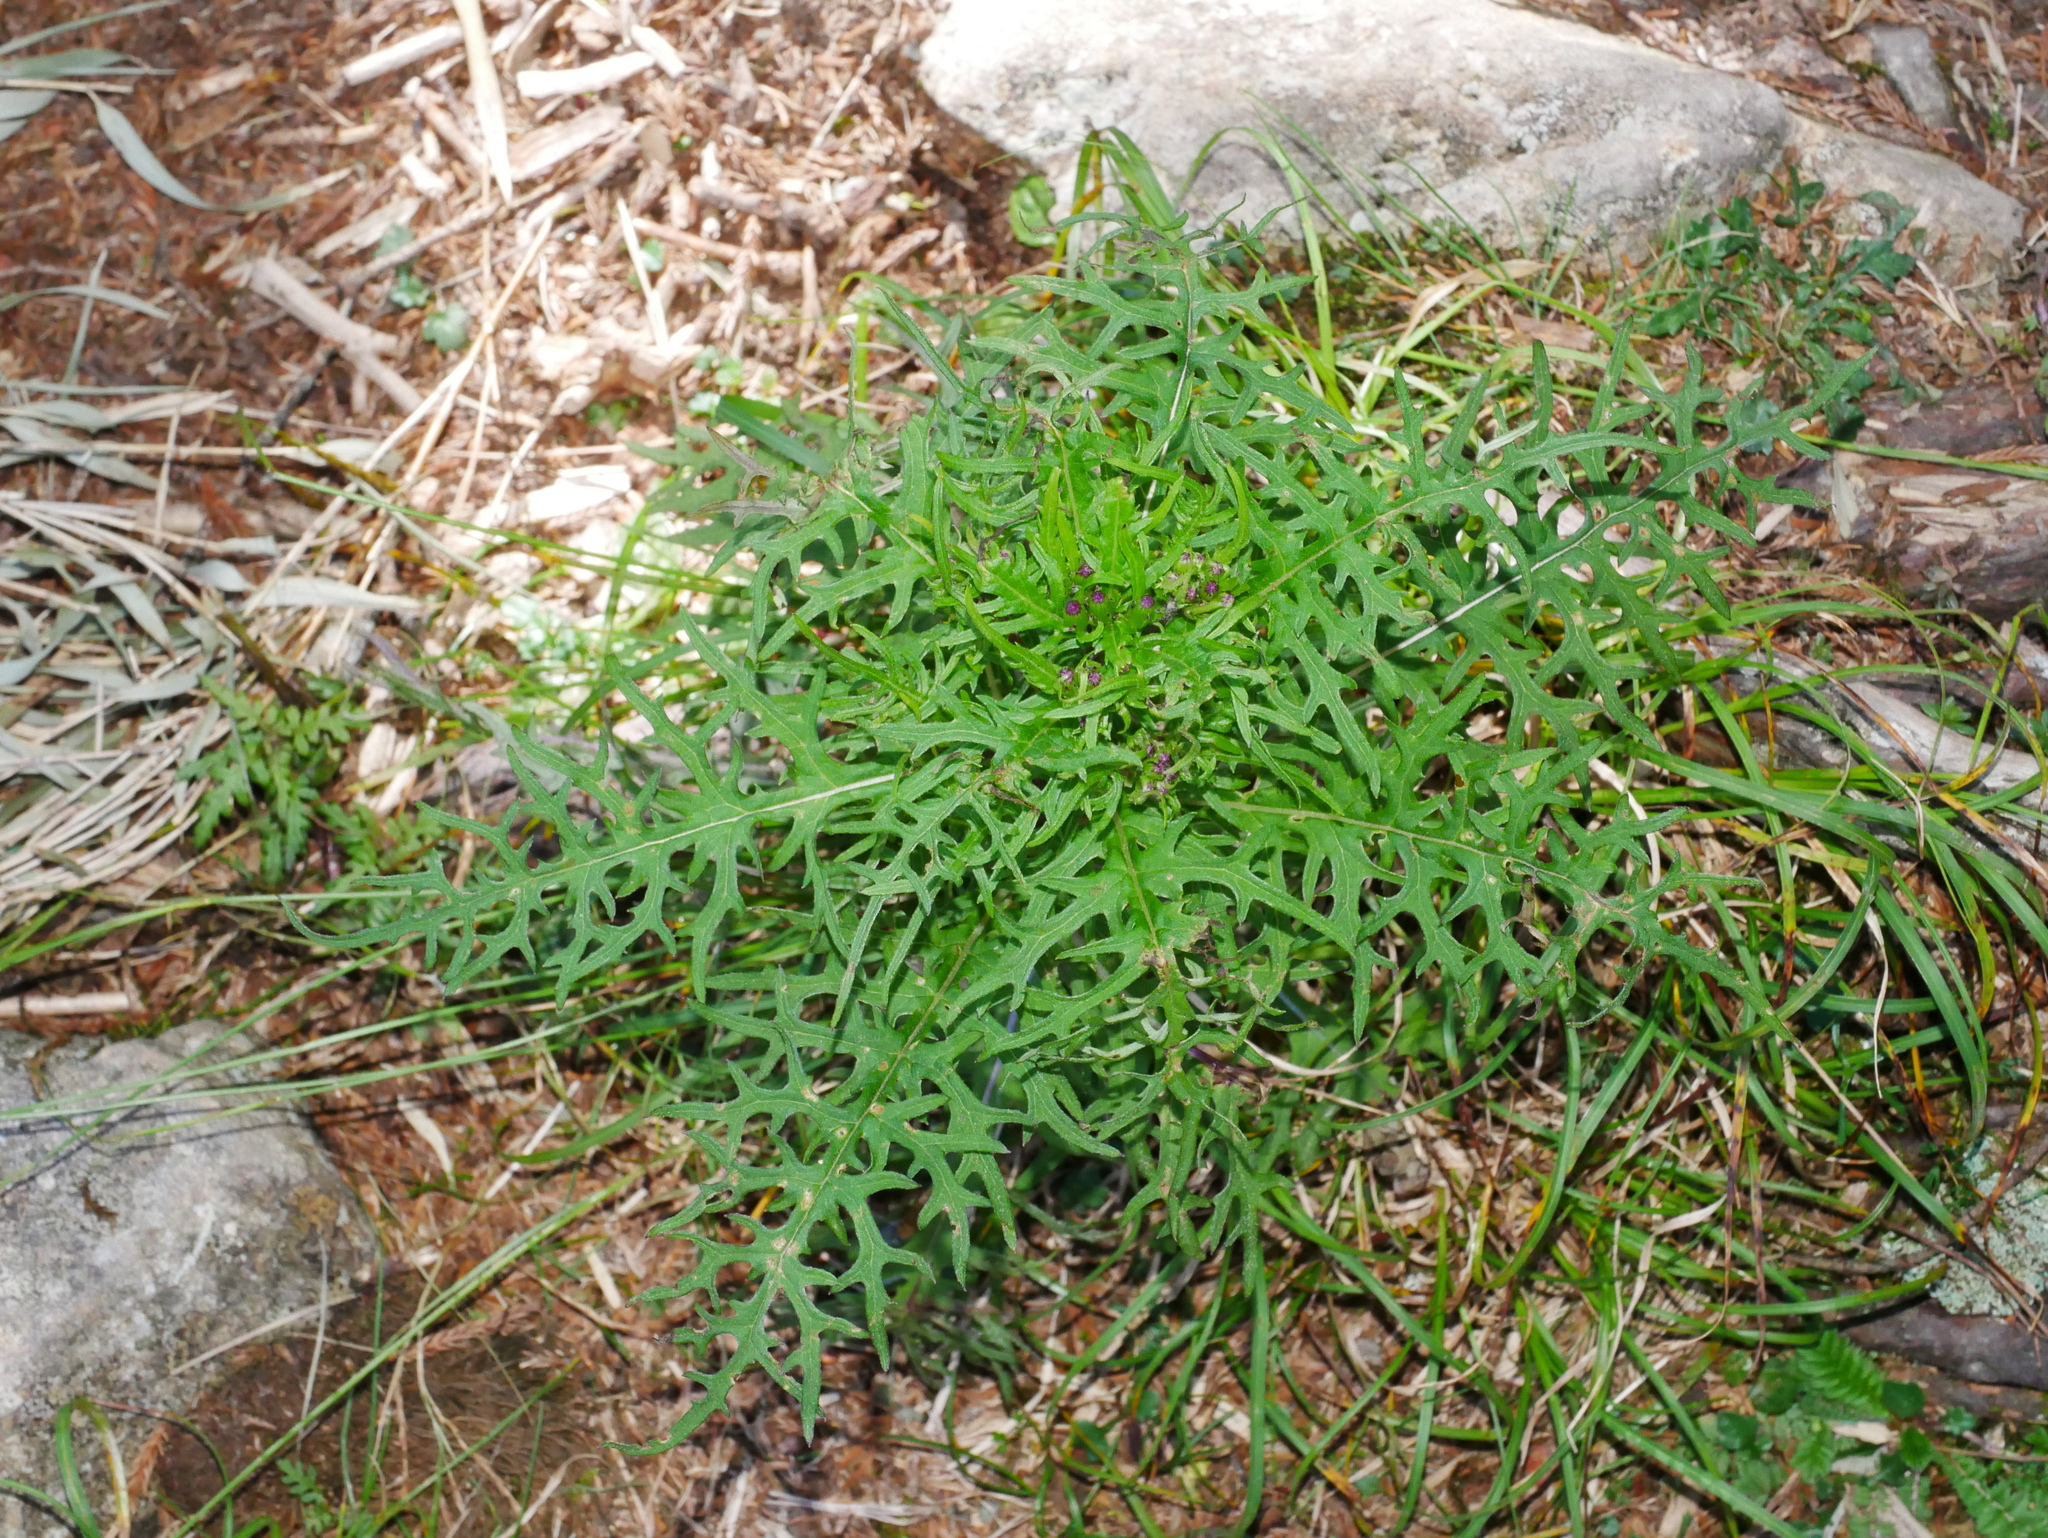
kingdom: Plantae
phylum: Tracheophyta
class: Magnoliopsida
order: Asterales
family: Asteraceae
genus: Jacobaea
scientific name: Jacobaea kuanshanensis
